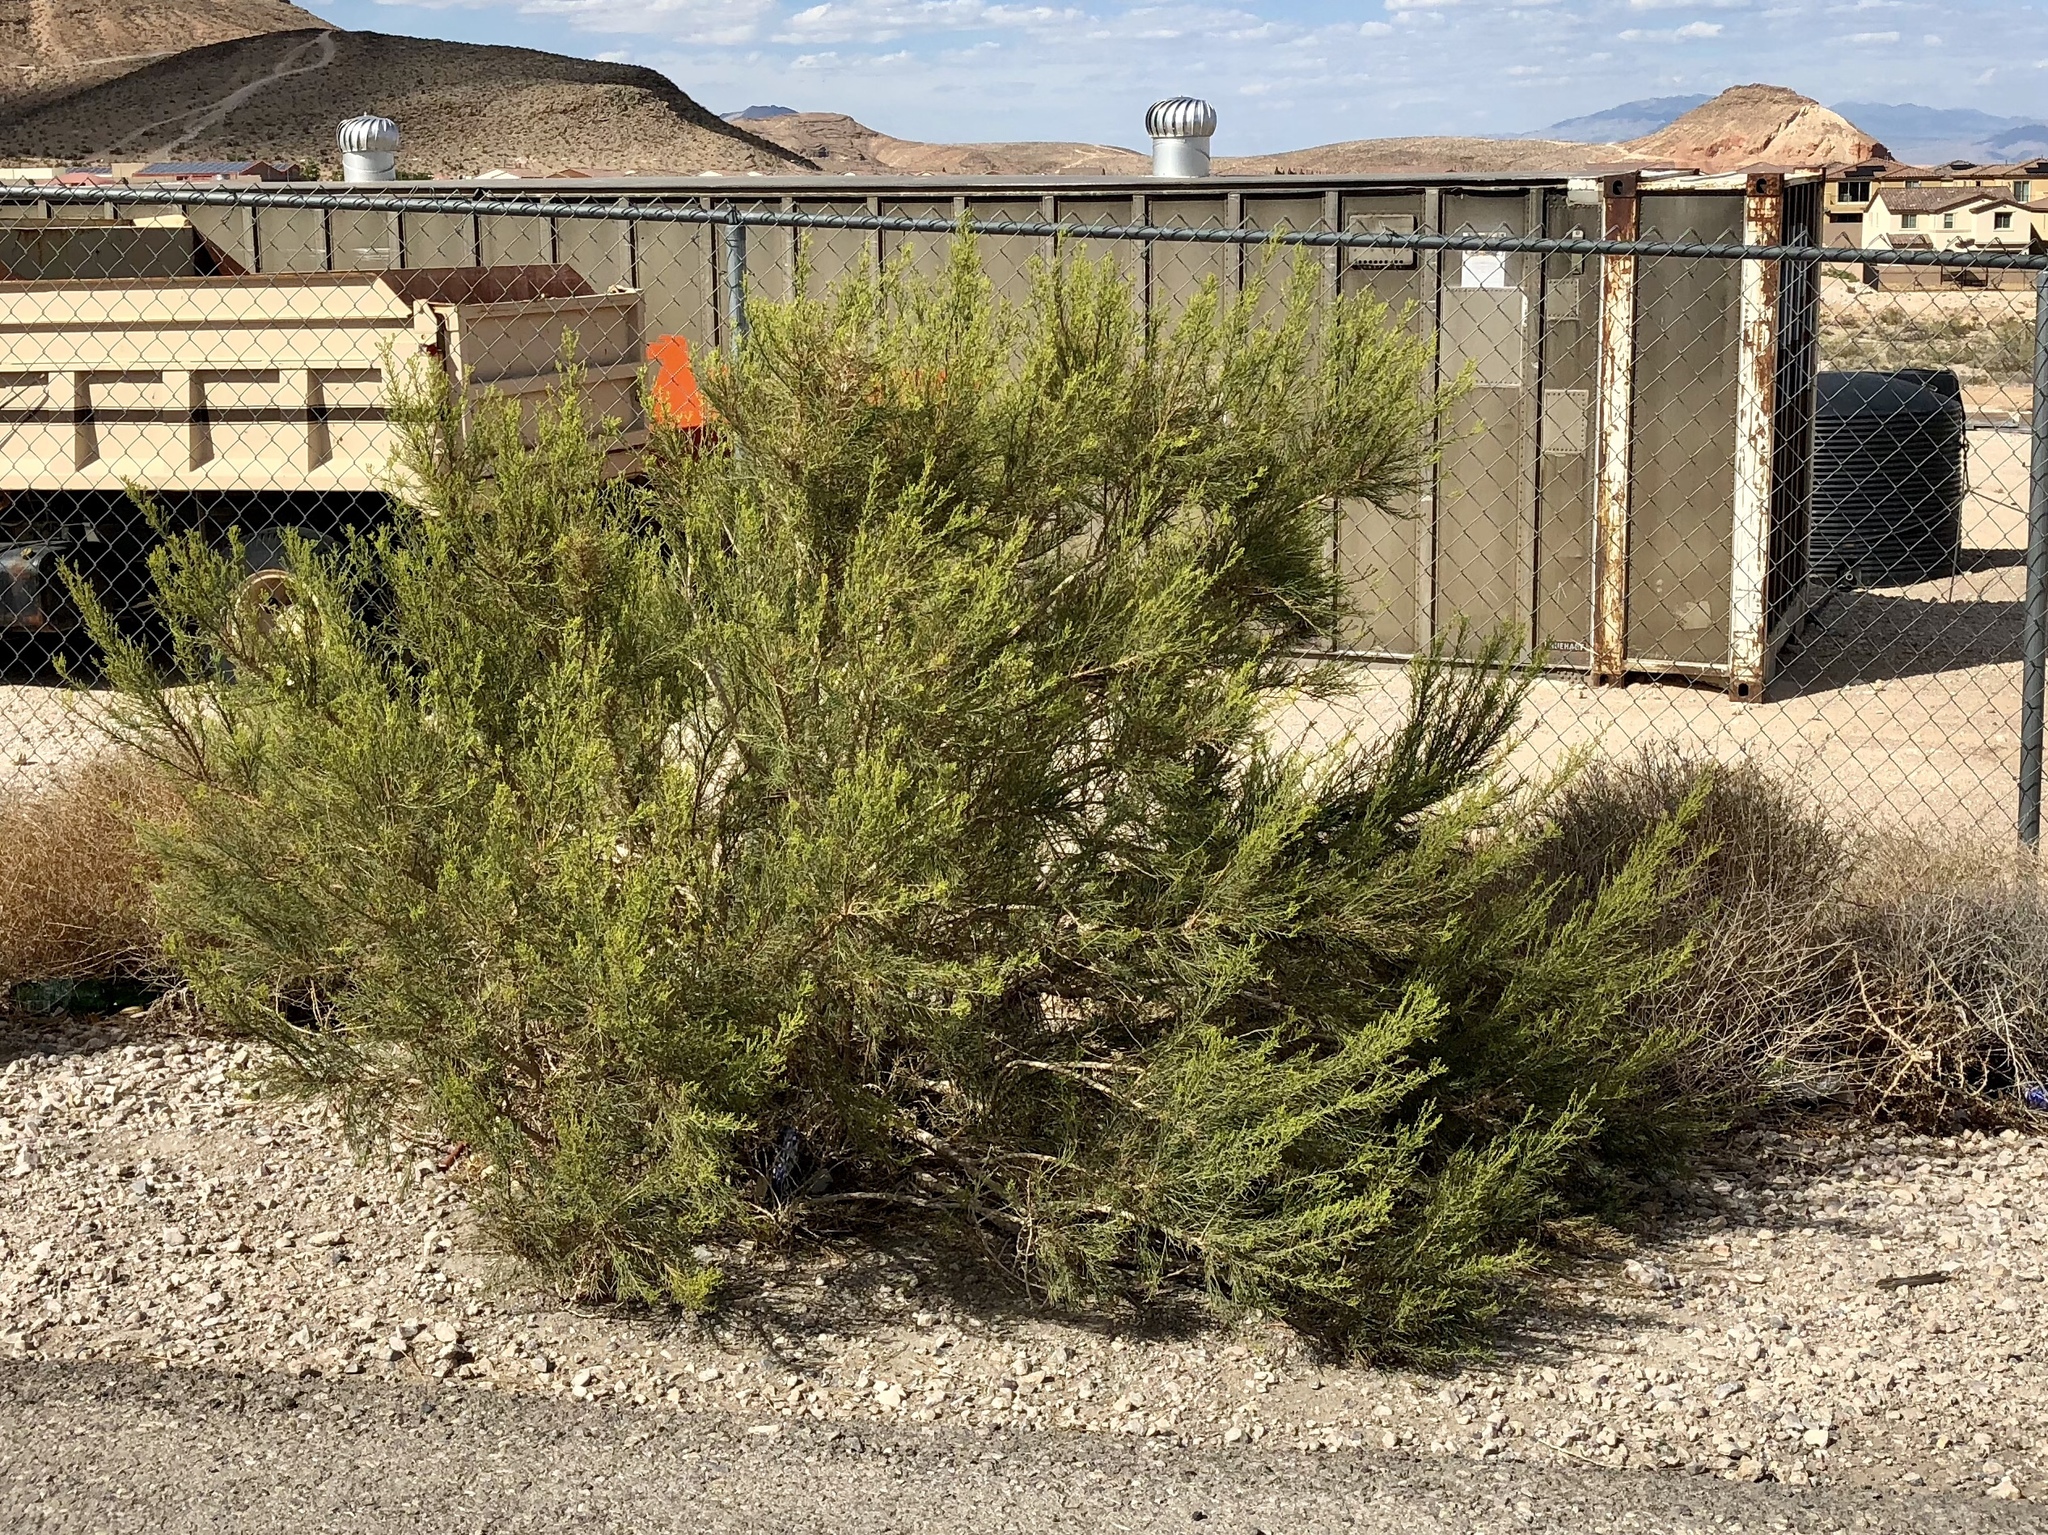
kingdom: Plantae
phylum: Tracheophyta
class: Magnoliopsida
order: Asterales
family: Asteraceae
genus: Baccharis
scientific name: Baccharis sarothroides
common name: Desert-broom
